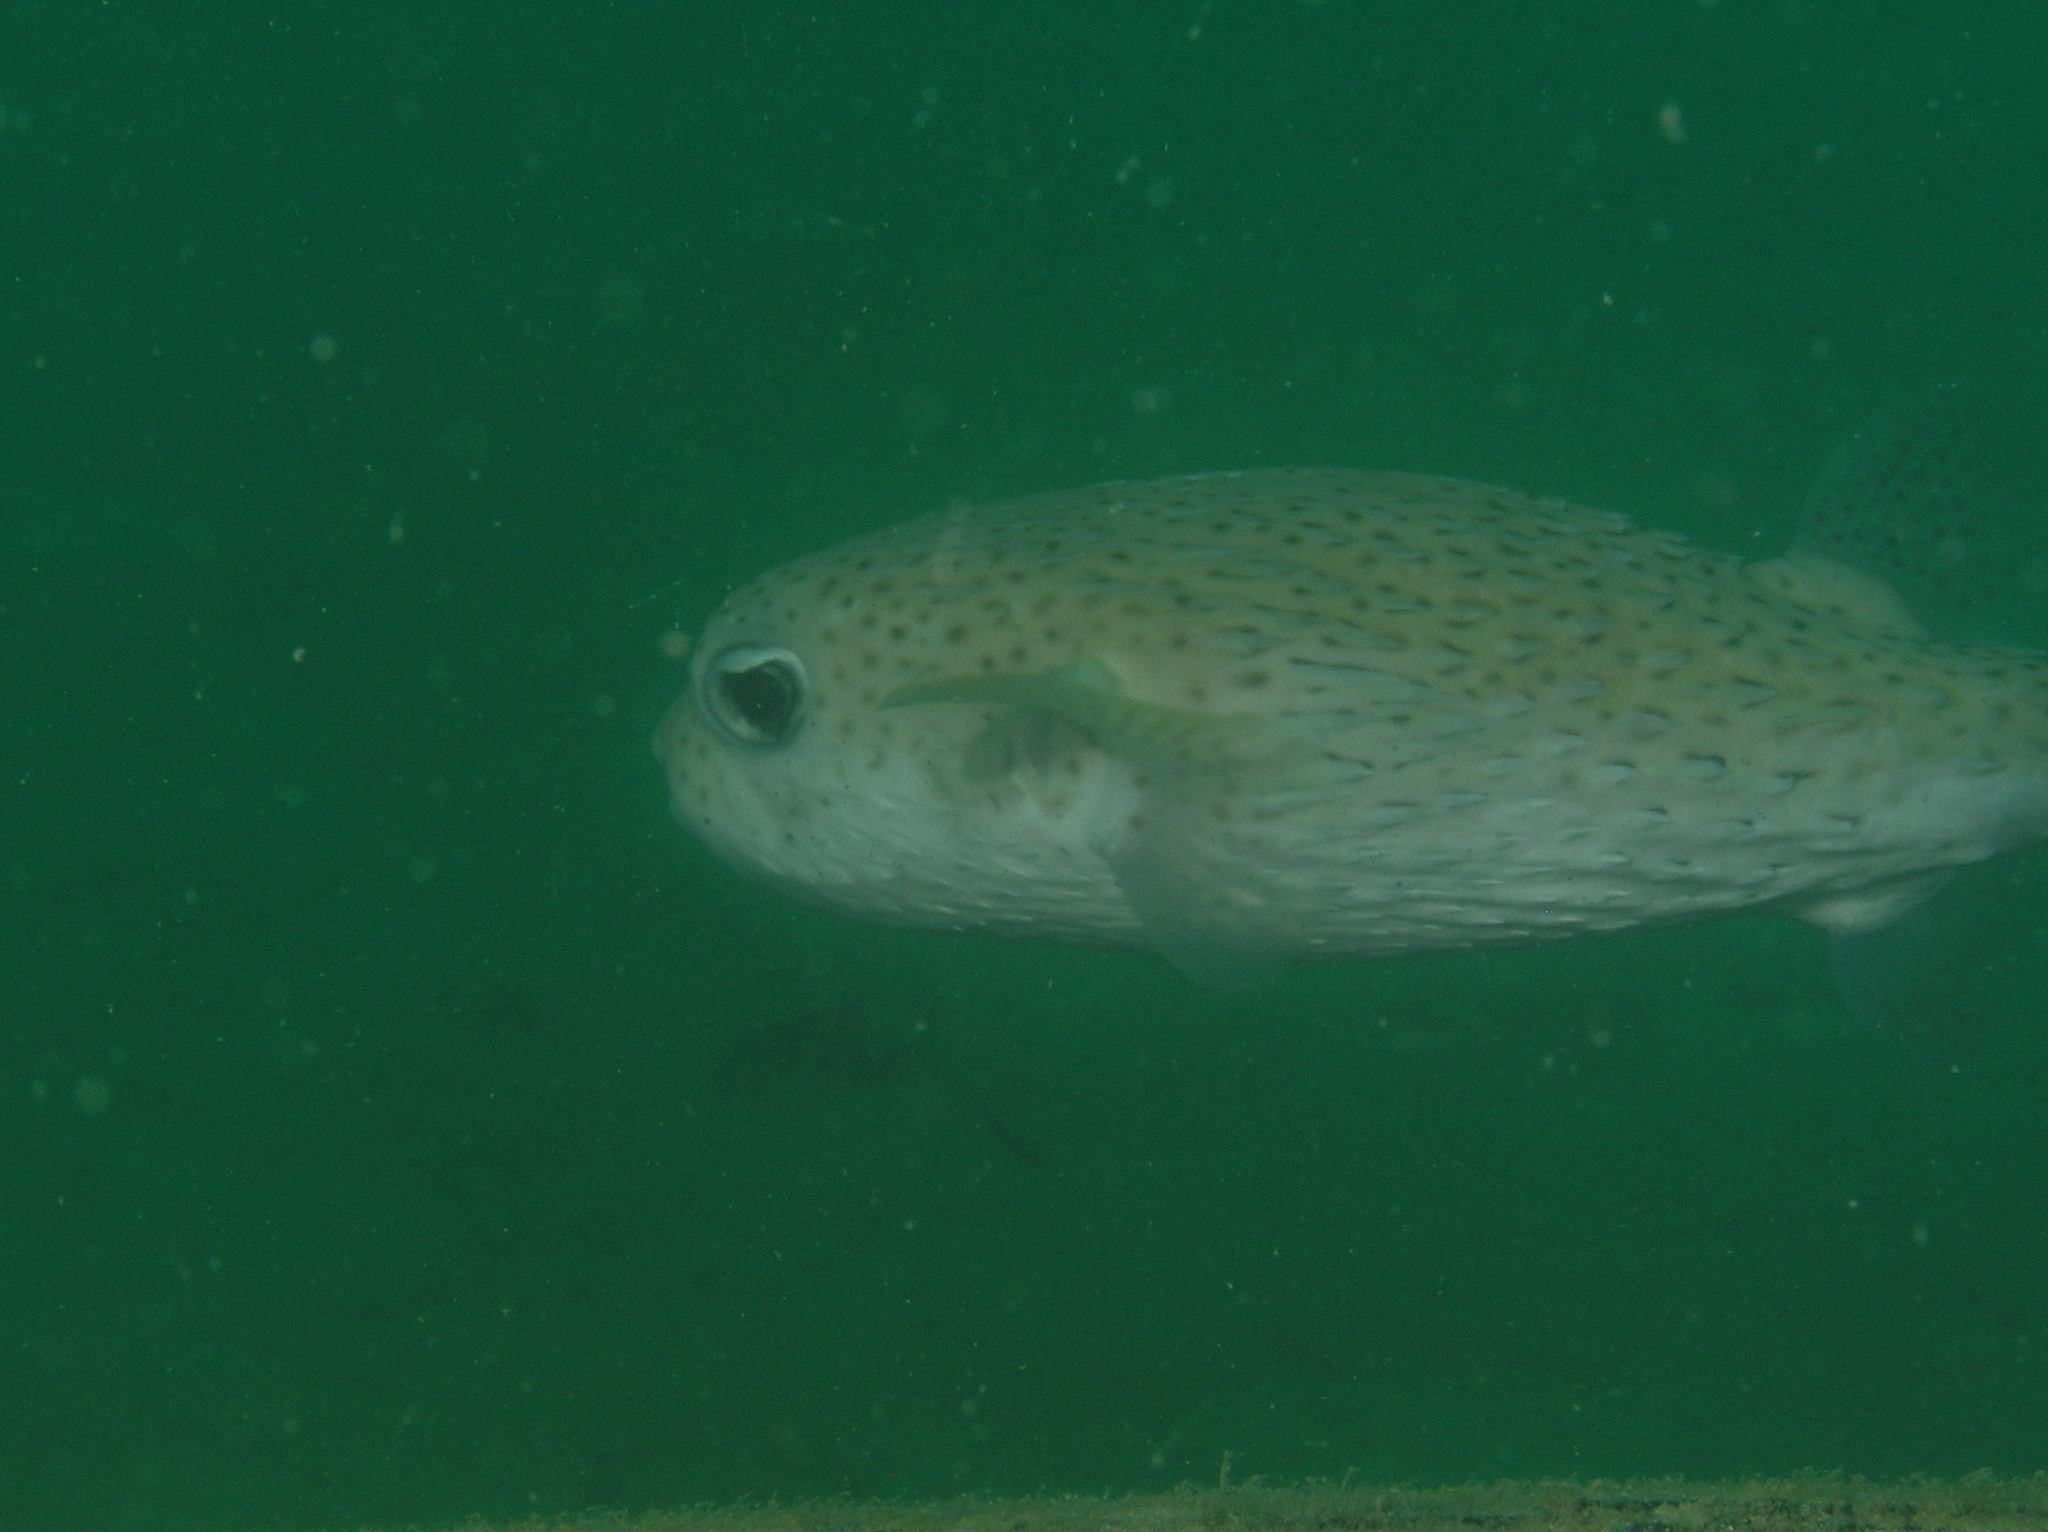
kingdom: Animalia
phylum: Chordata
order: Tetraodontiformes
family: Diodontidae
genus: Diodon
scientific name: Diodon hystrix
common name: Giant porcupinefish
